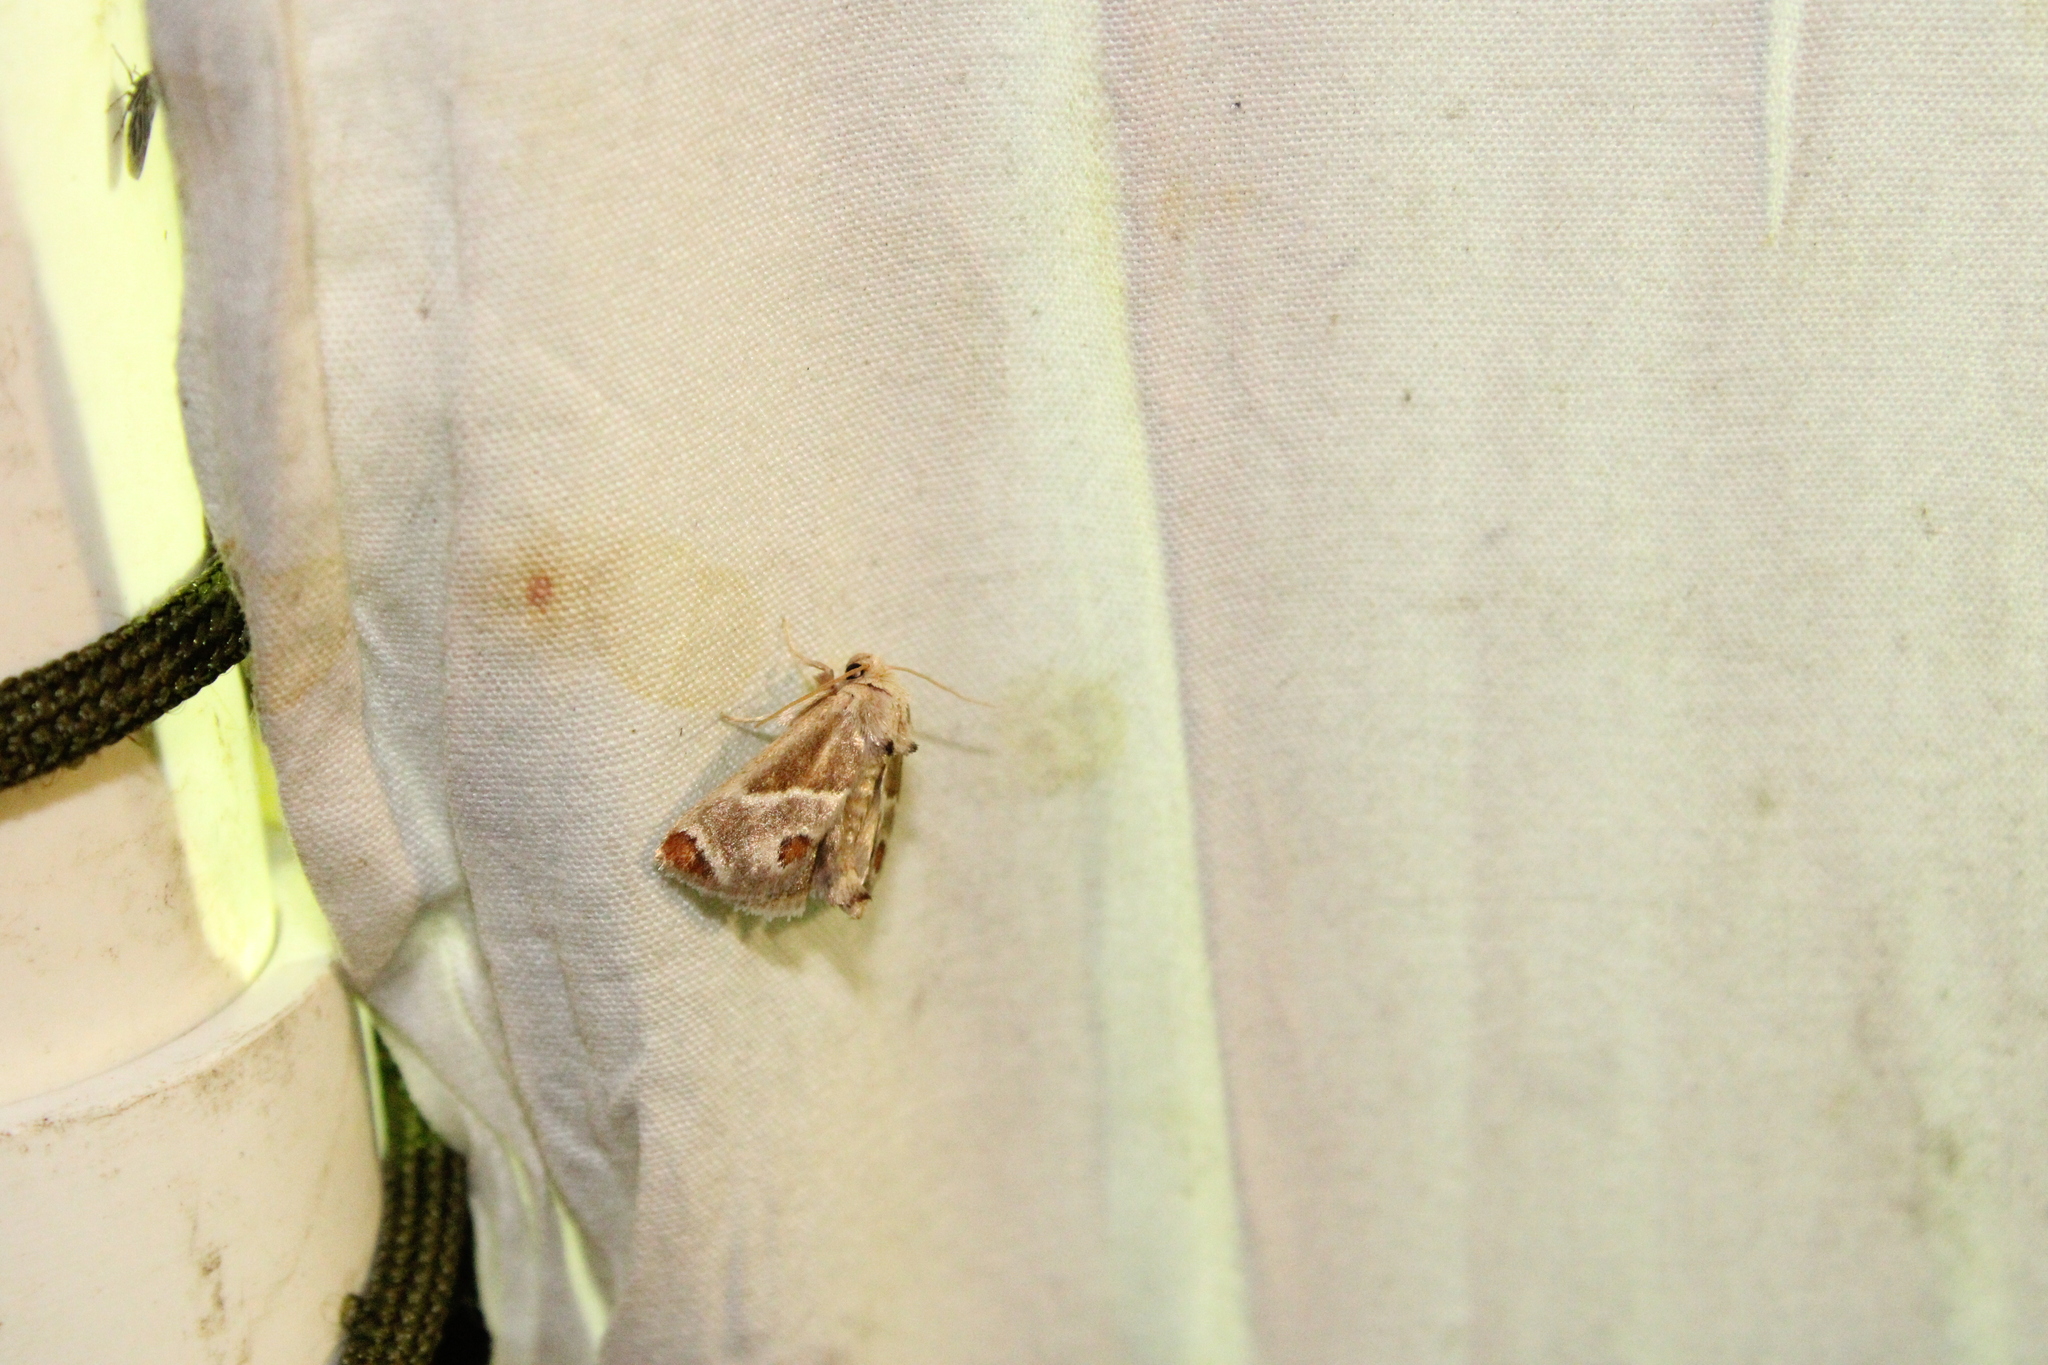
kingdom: Animalia
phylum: Arthropoda
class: Insecta
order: Lepidoptera
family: Limacodidae
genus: Apoda
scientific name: Apoda biguttata
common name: Shagreened slug moth
